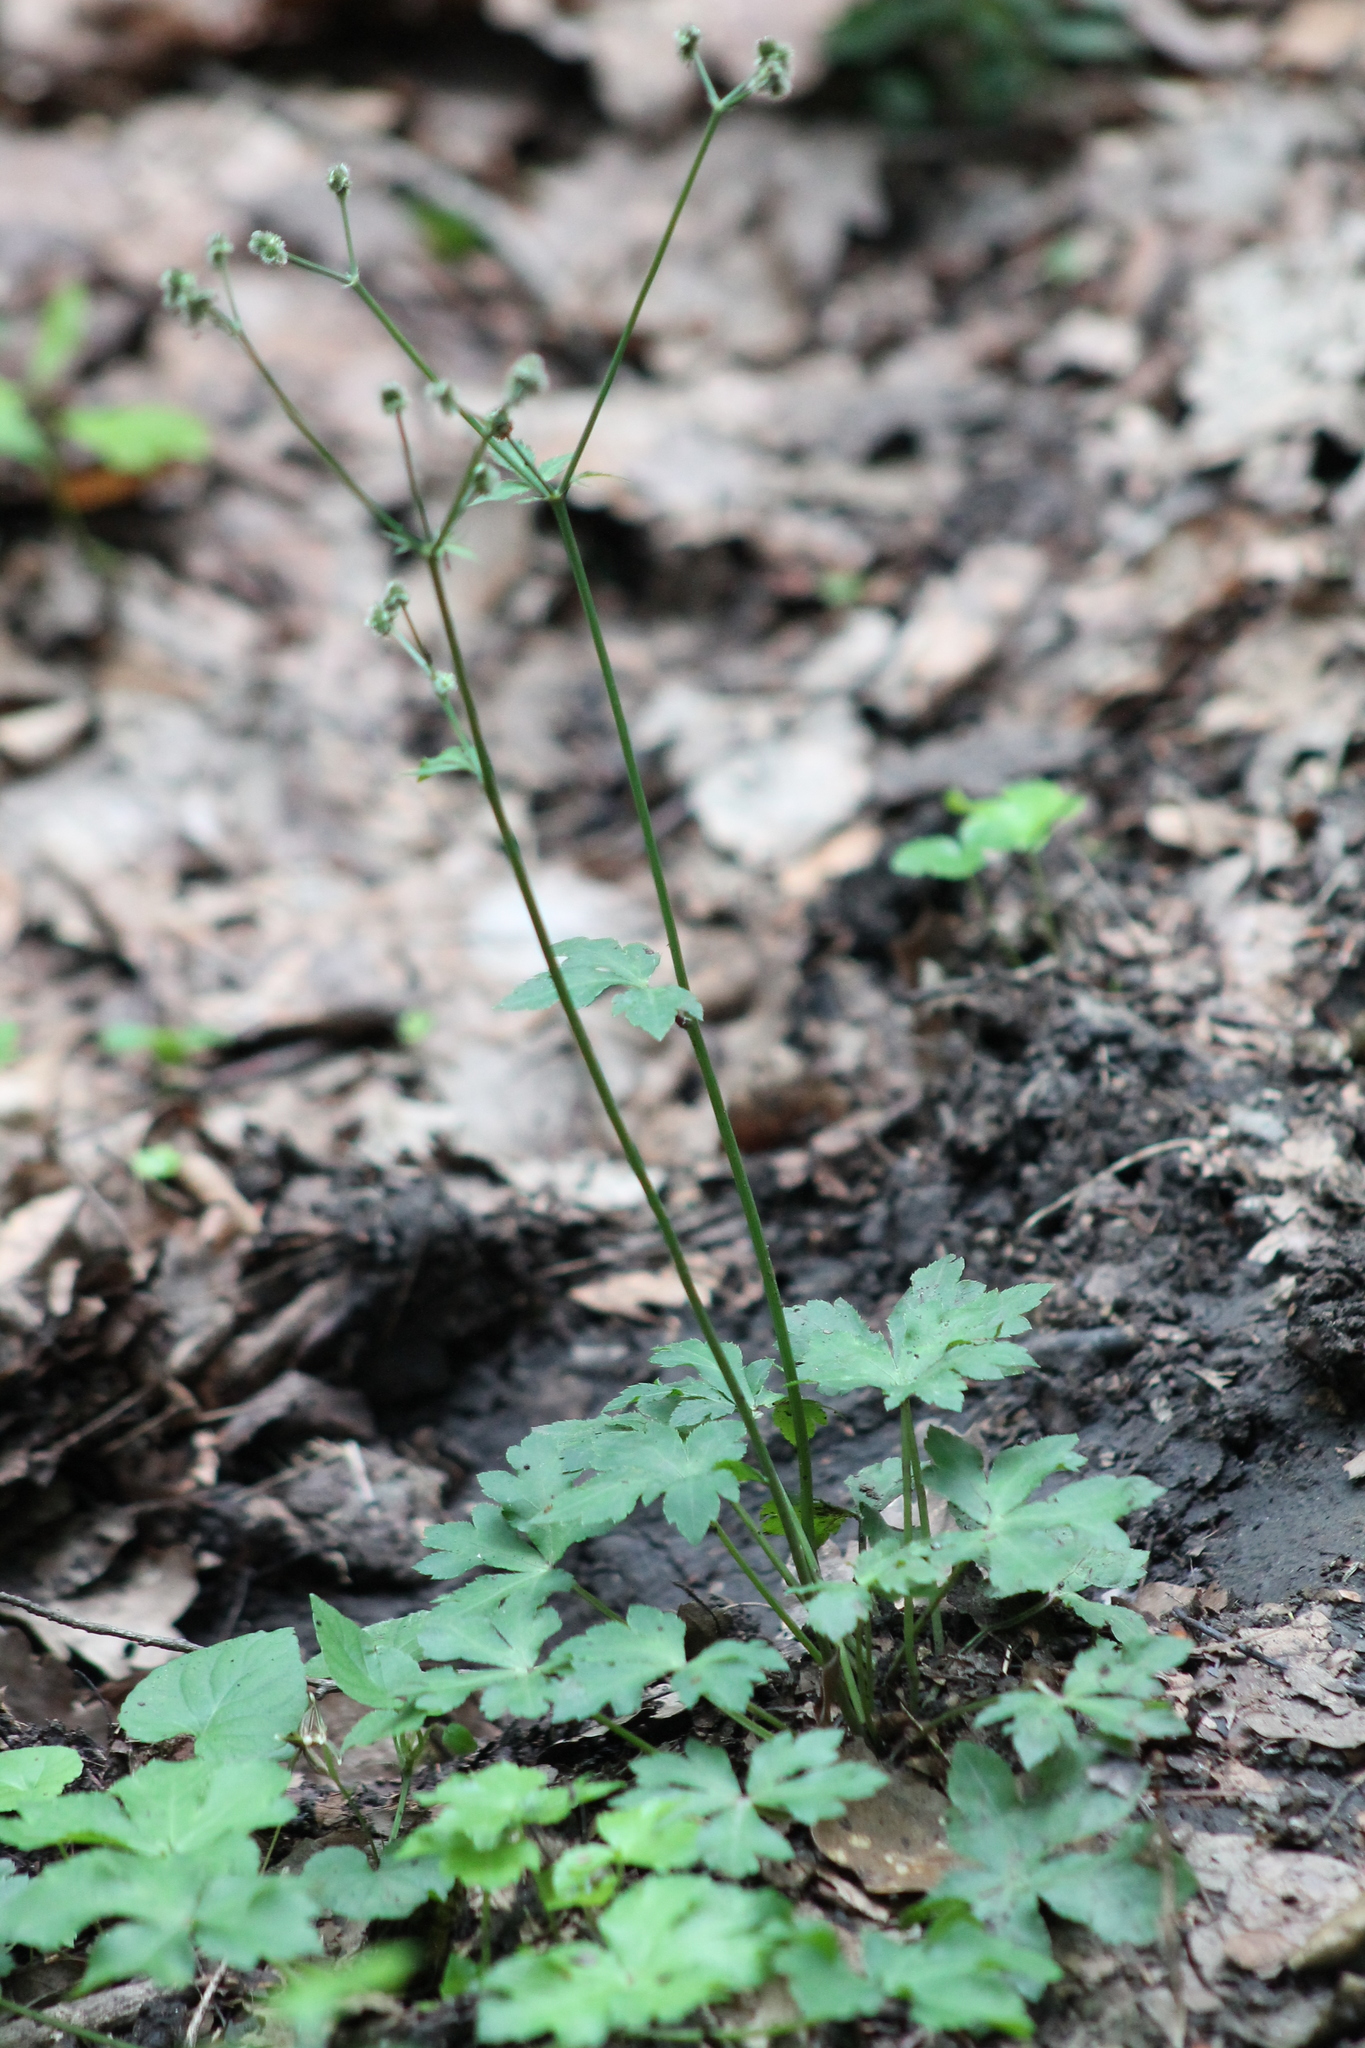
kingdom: Plantae
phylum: Tracheophyta
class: Magnoliopsida
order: Apiales
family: Apiaceae
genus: Sanicula
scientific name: Sanicula europaea
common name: Sanicle
